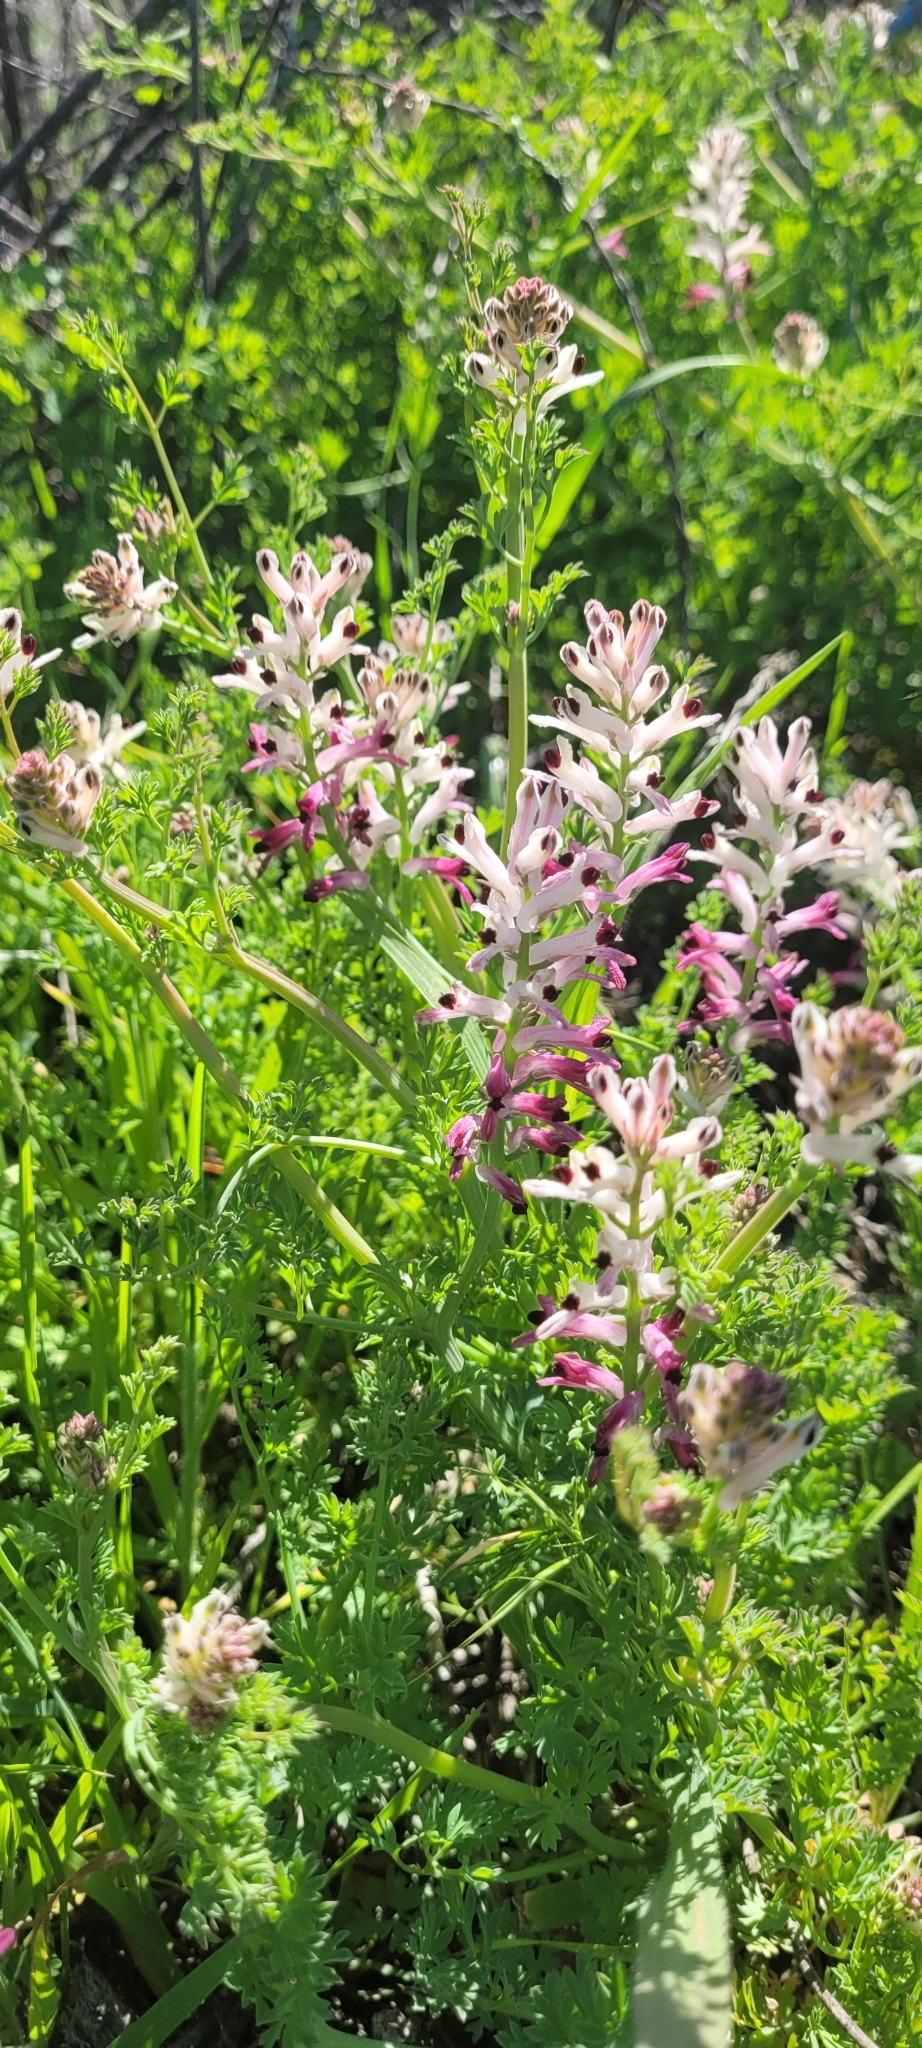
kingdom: Plantae
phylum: Tracheophyta
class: Magnoliopsida
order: Ranunculales
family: Papaveraceae
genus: Fumaria
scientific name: Fumaria agraria
